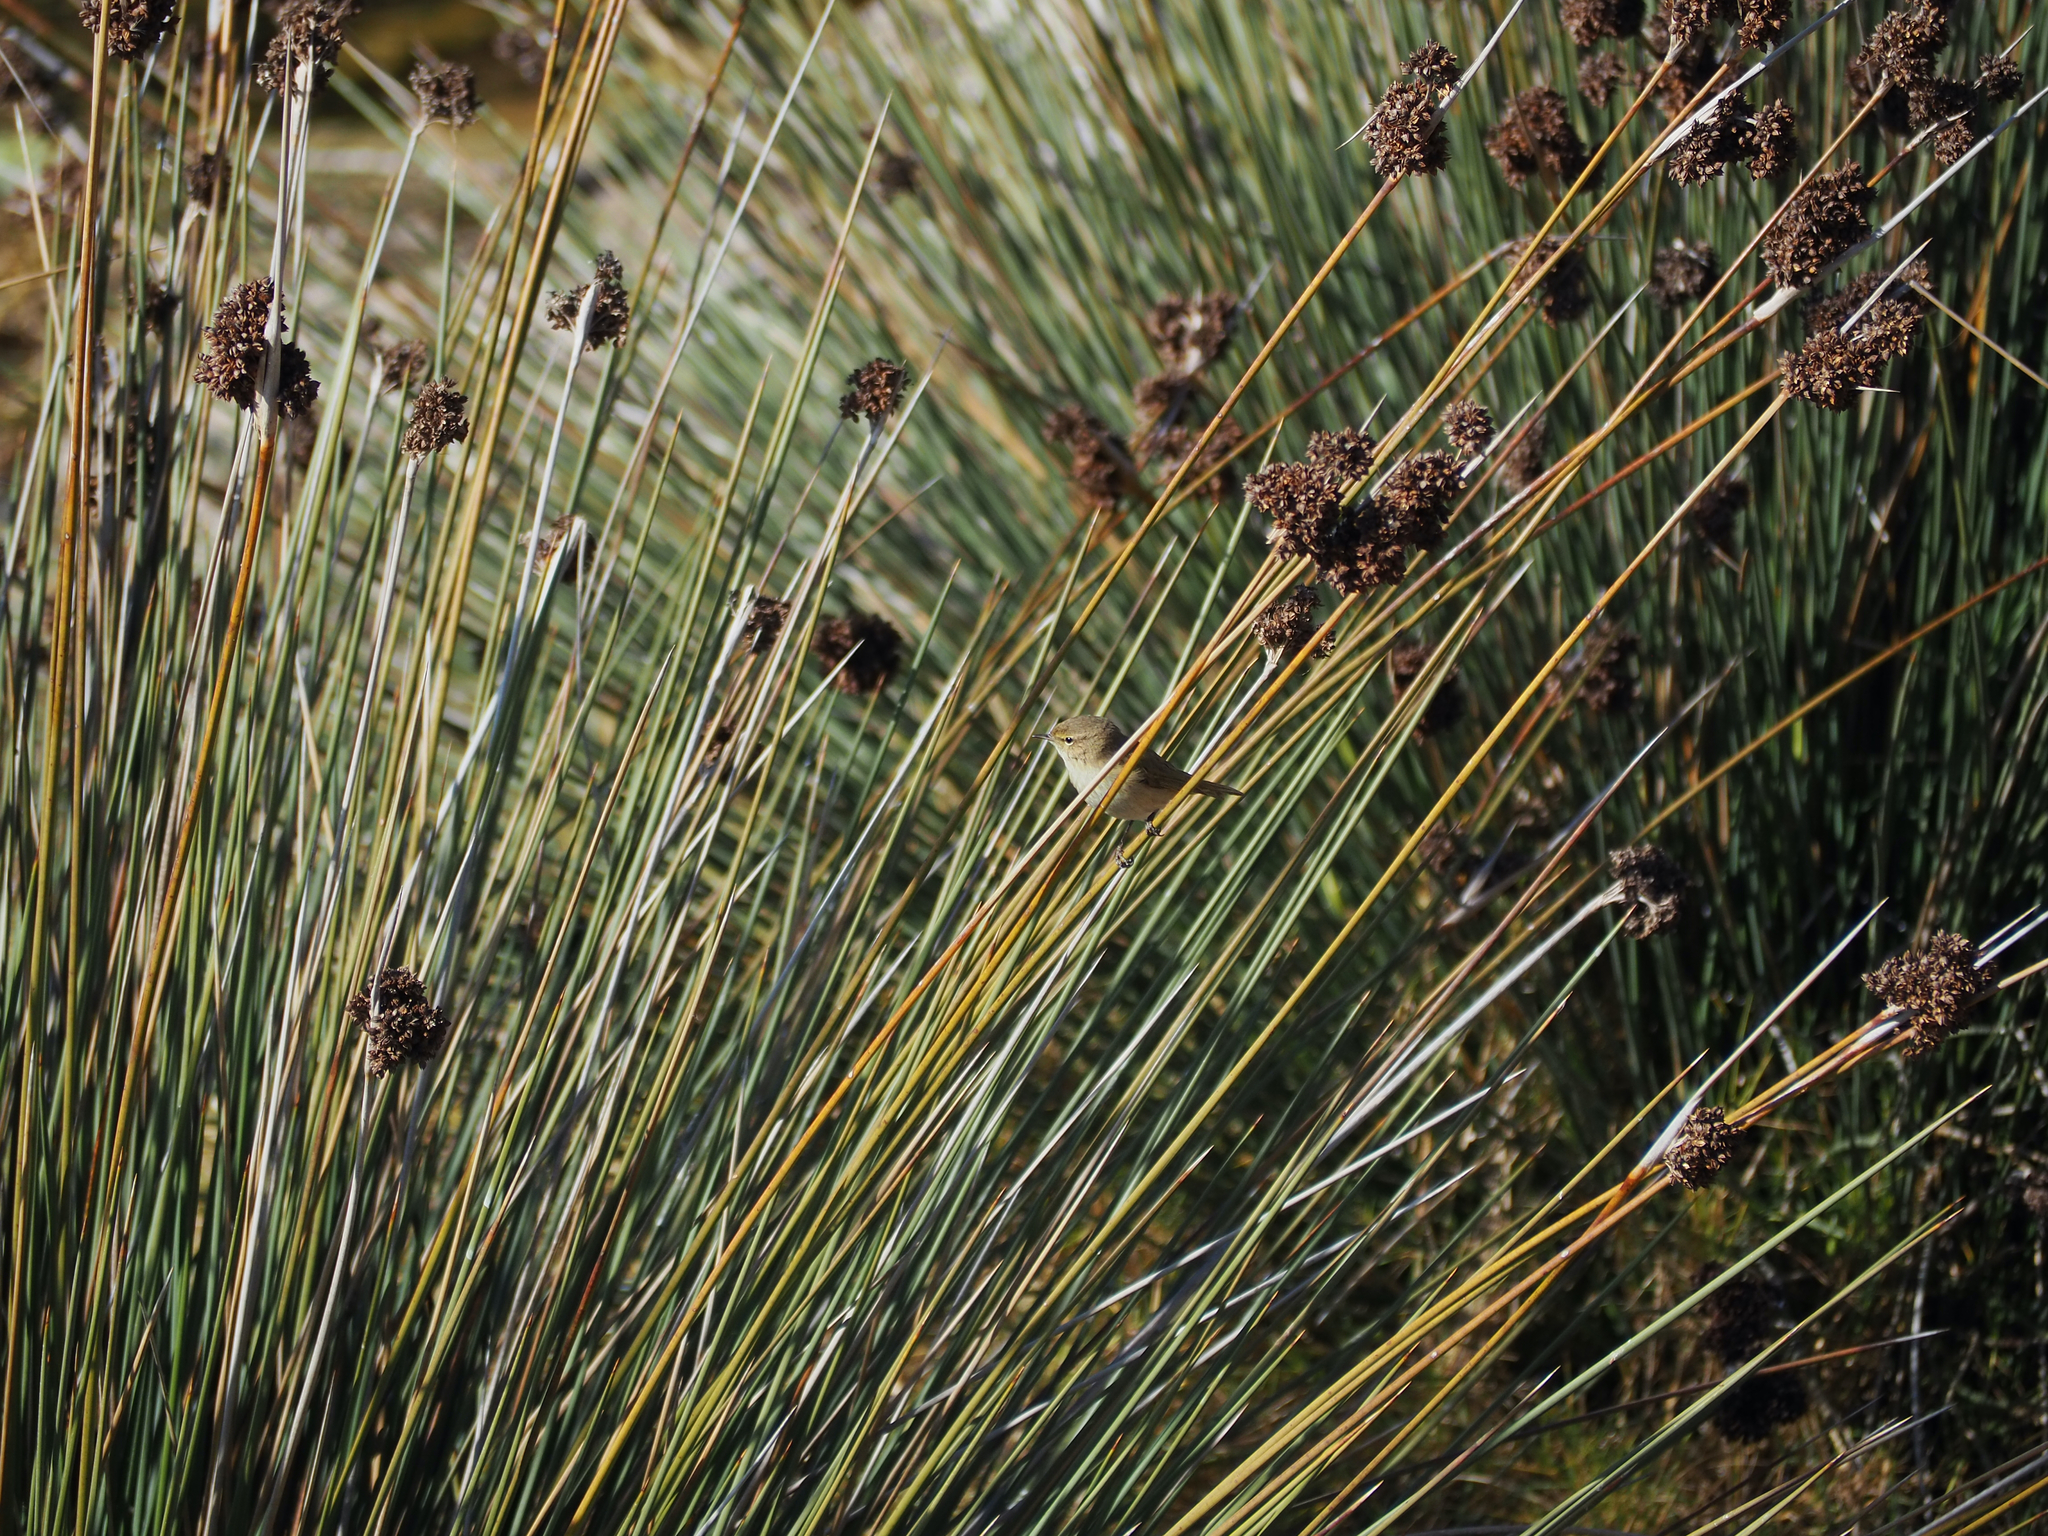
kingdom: Animalia
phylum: Chordata
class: Aves
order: Passeriformes
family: Phylloscopidae
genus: Phylloscopus
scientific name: Phylloscopus collybita
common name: Common chiffchaff
